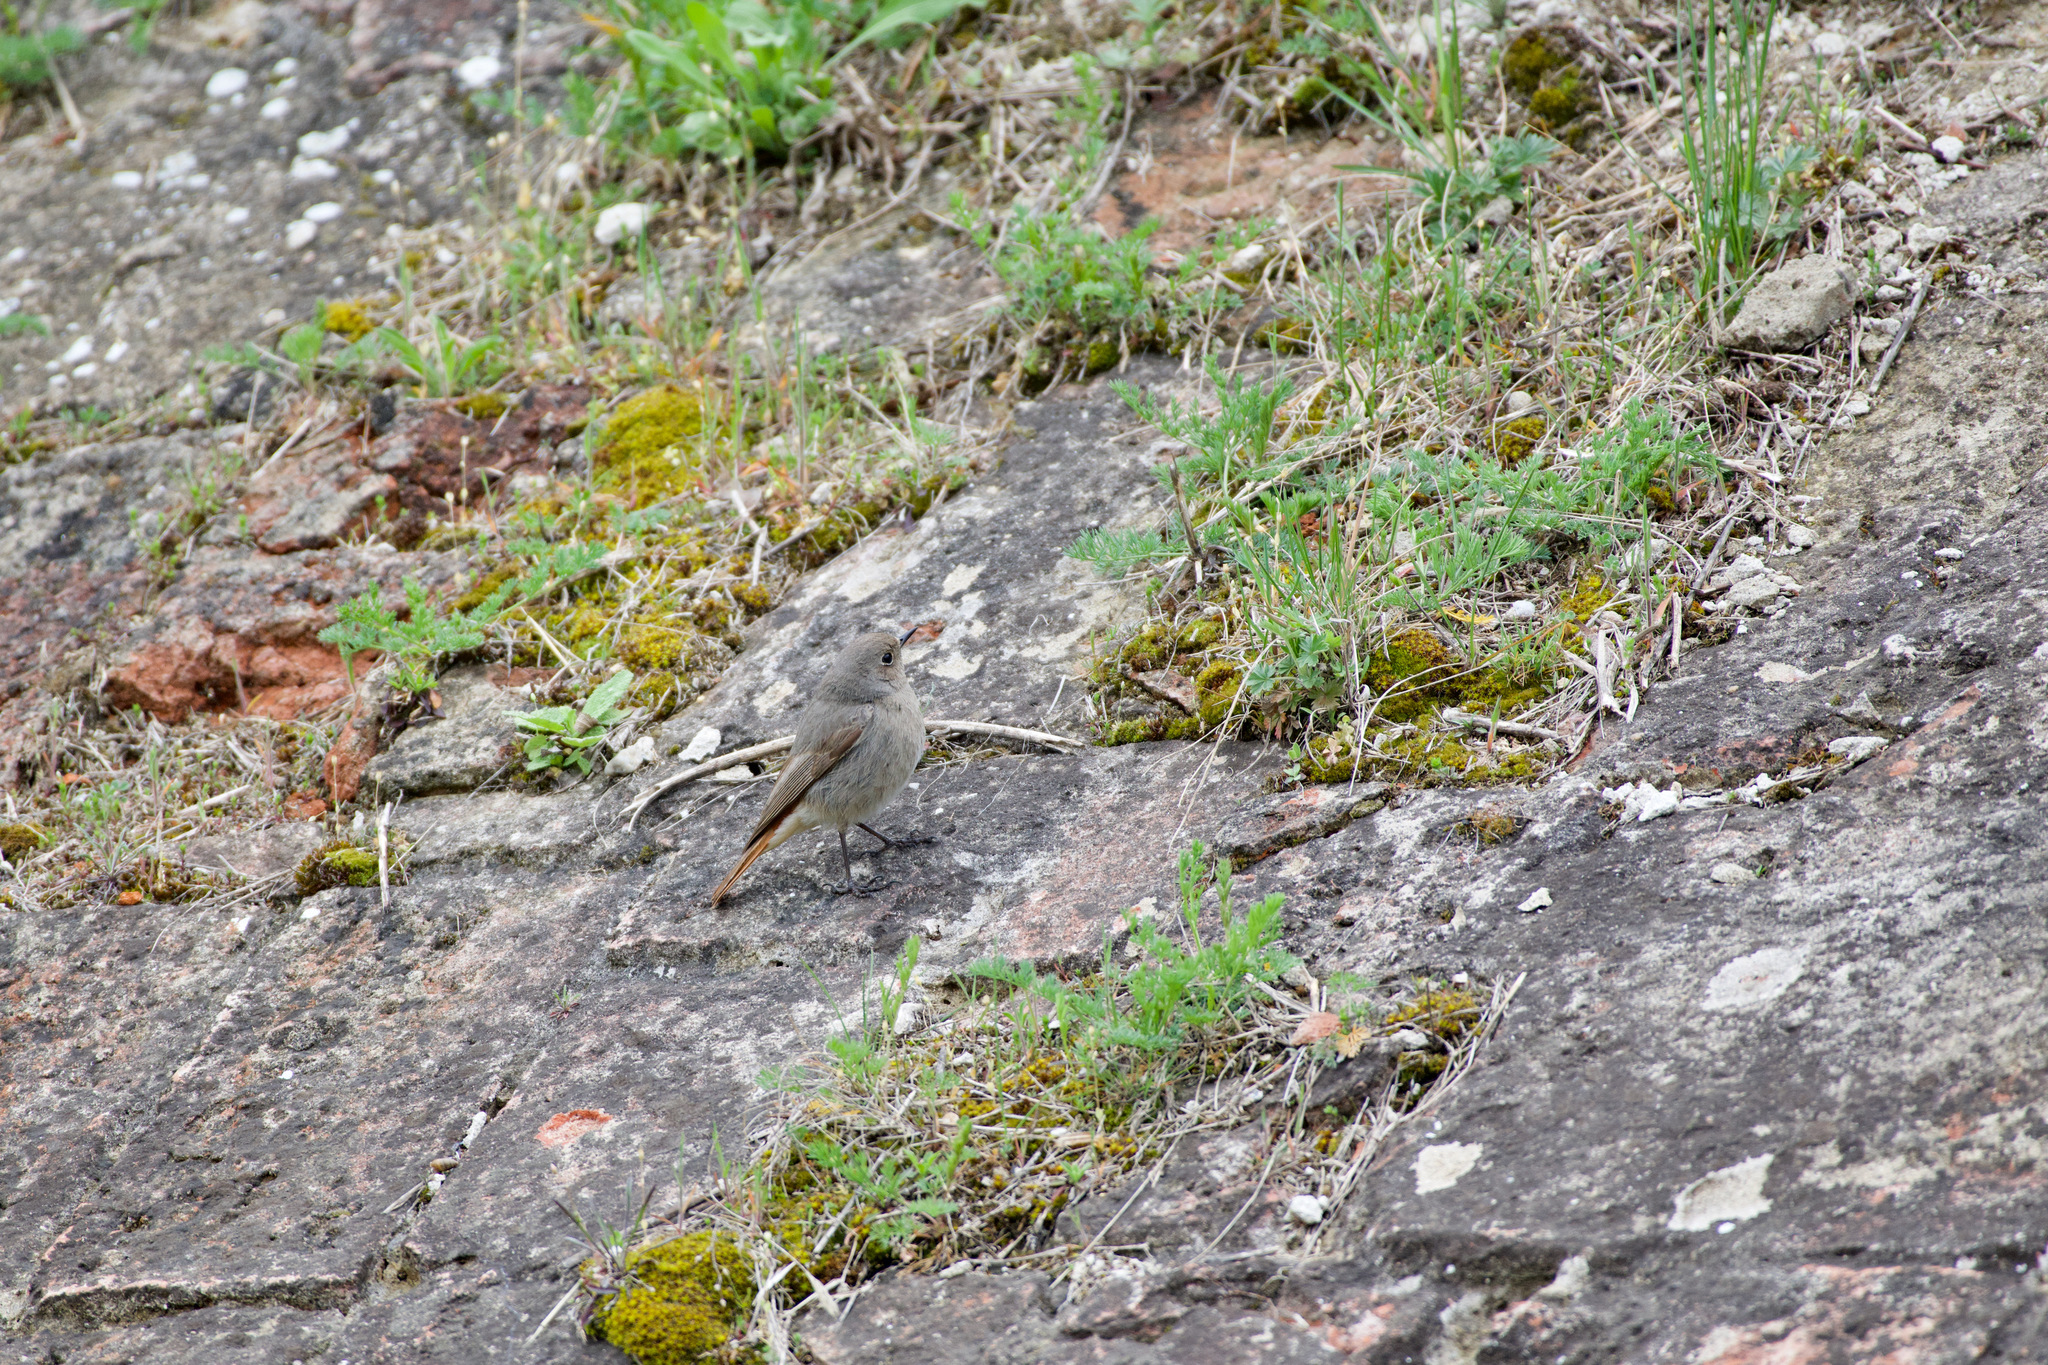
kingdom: Animalia
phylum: Chordata
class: Aves
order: Passeriformes
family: Muscicapidae
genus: Phoenicurus
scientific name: Phoenicurus ochruros
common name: Black redstart
